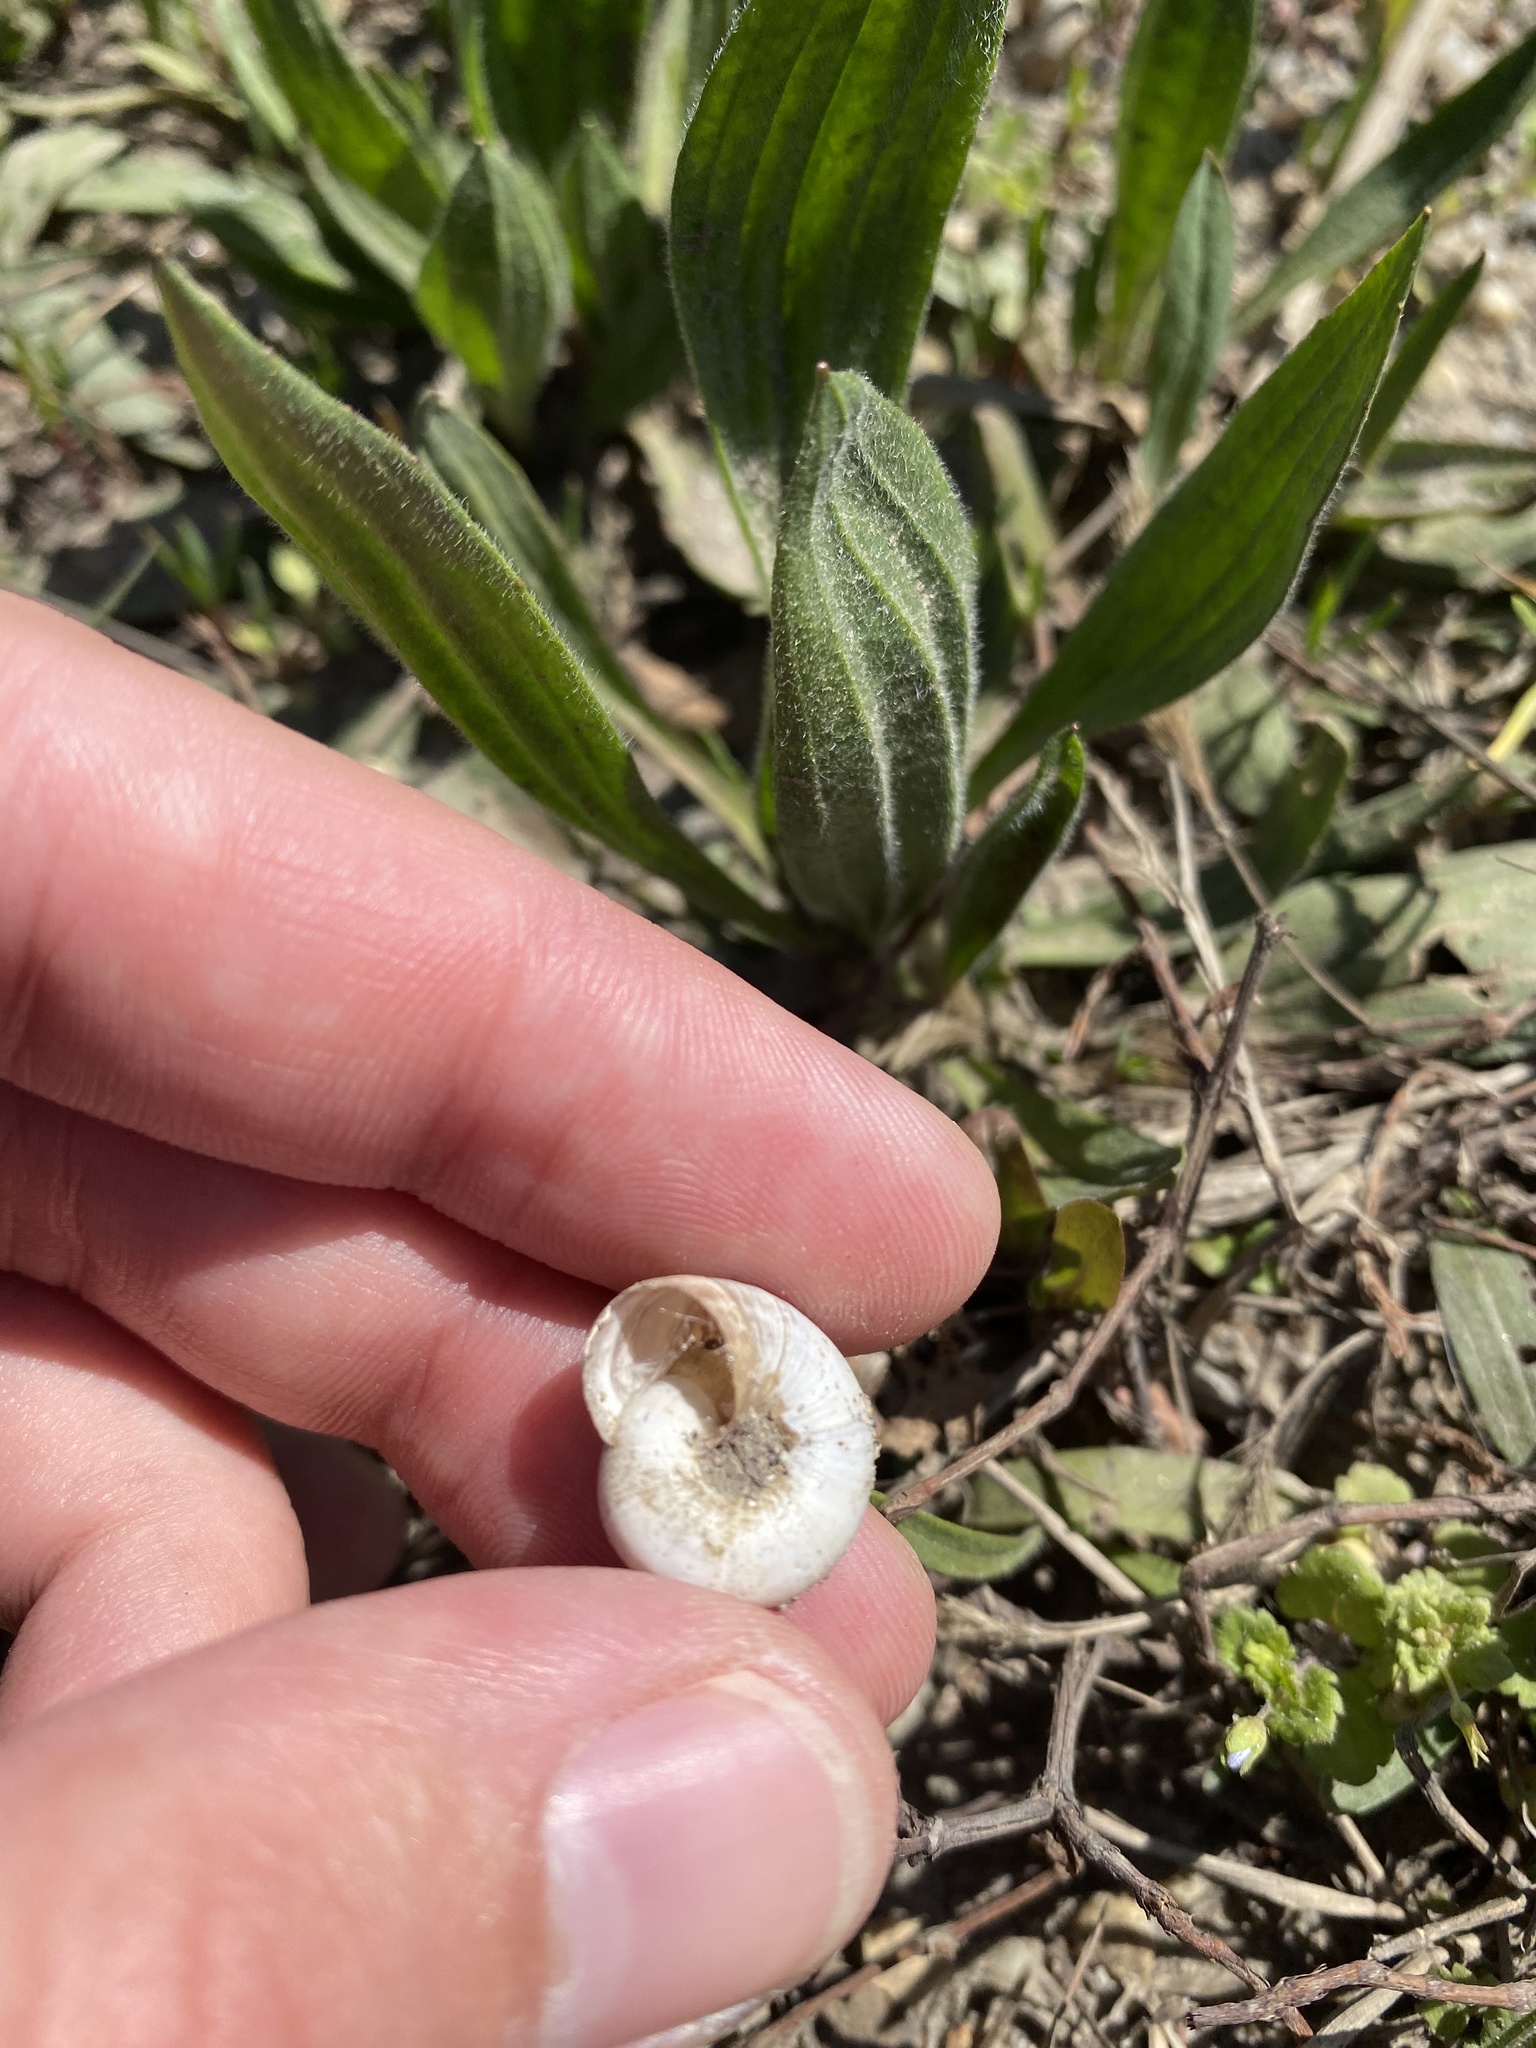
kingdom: Animalia
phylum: Mollusca
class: Gastropoda
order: Stylommatophora
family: Geomitridae
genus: Xeropicta
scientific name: Xeropicta derbentina
